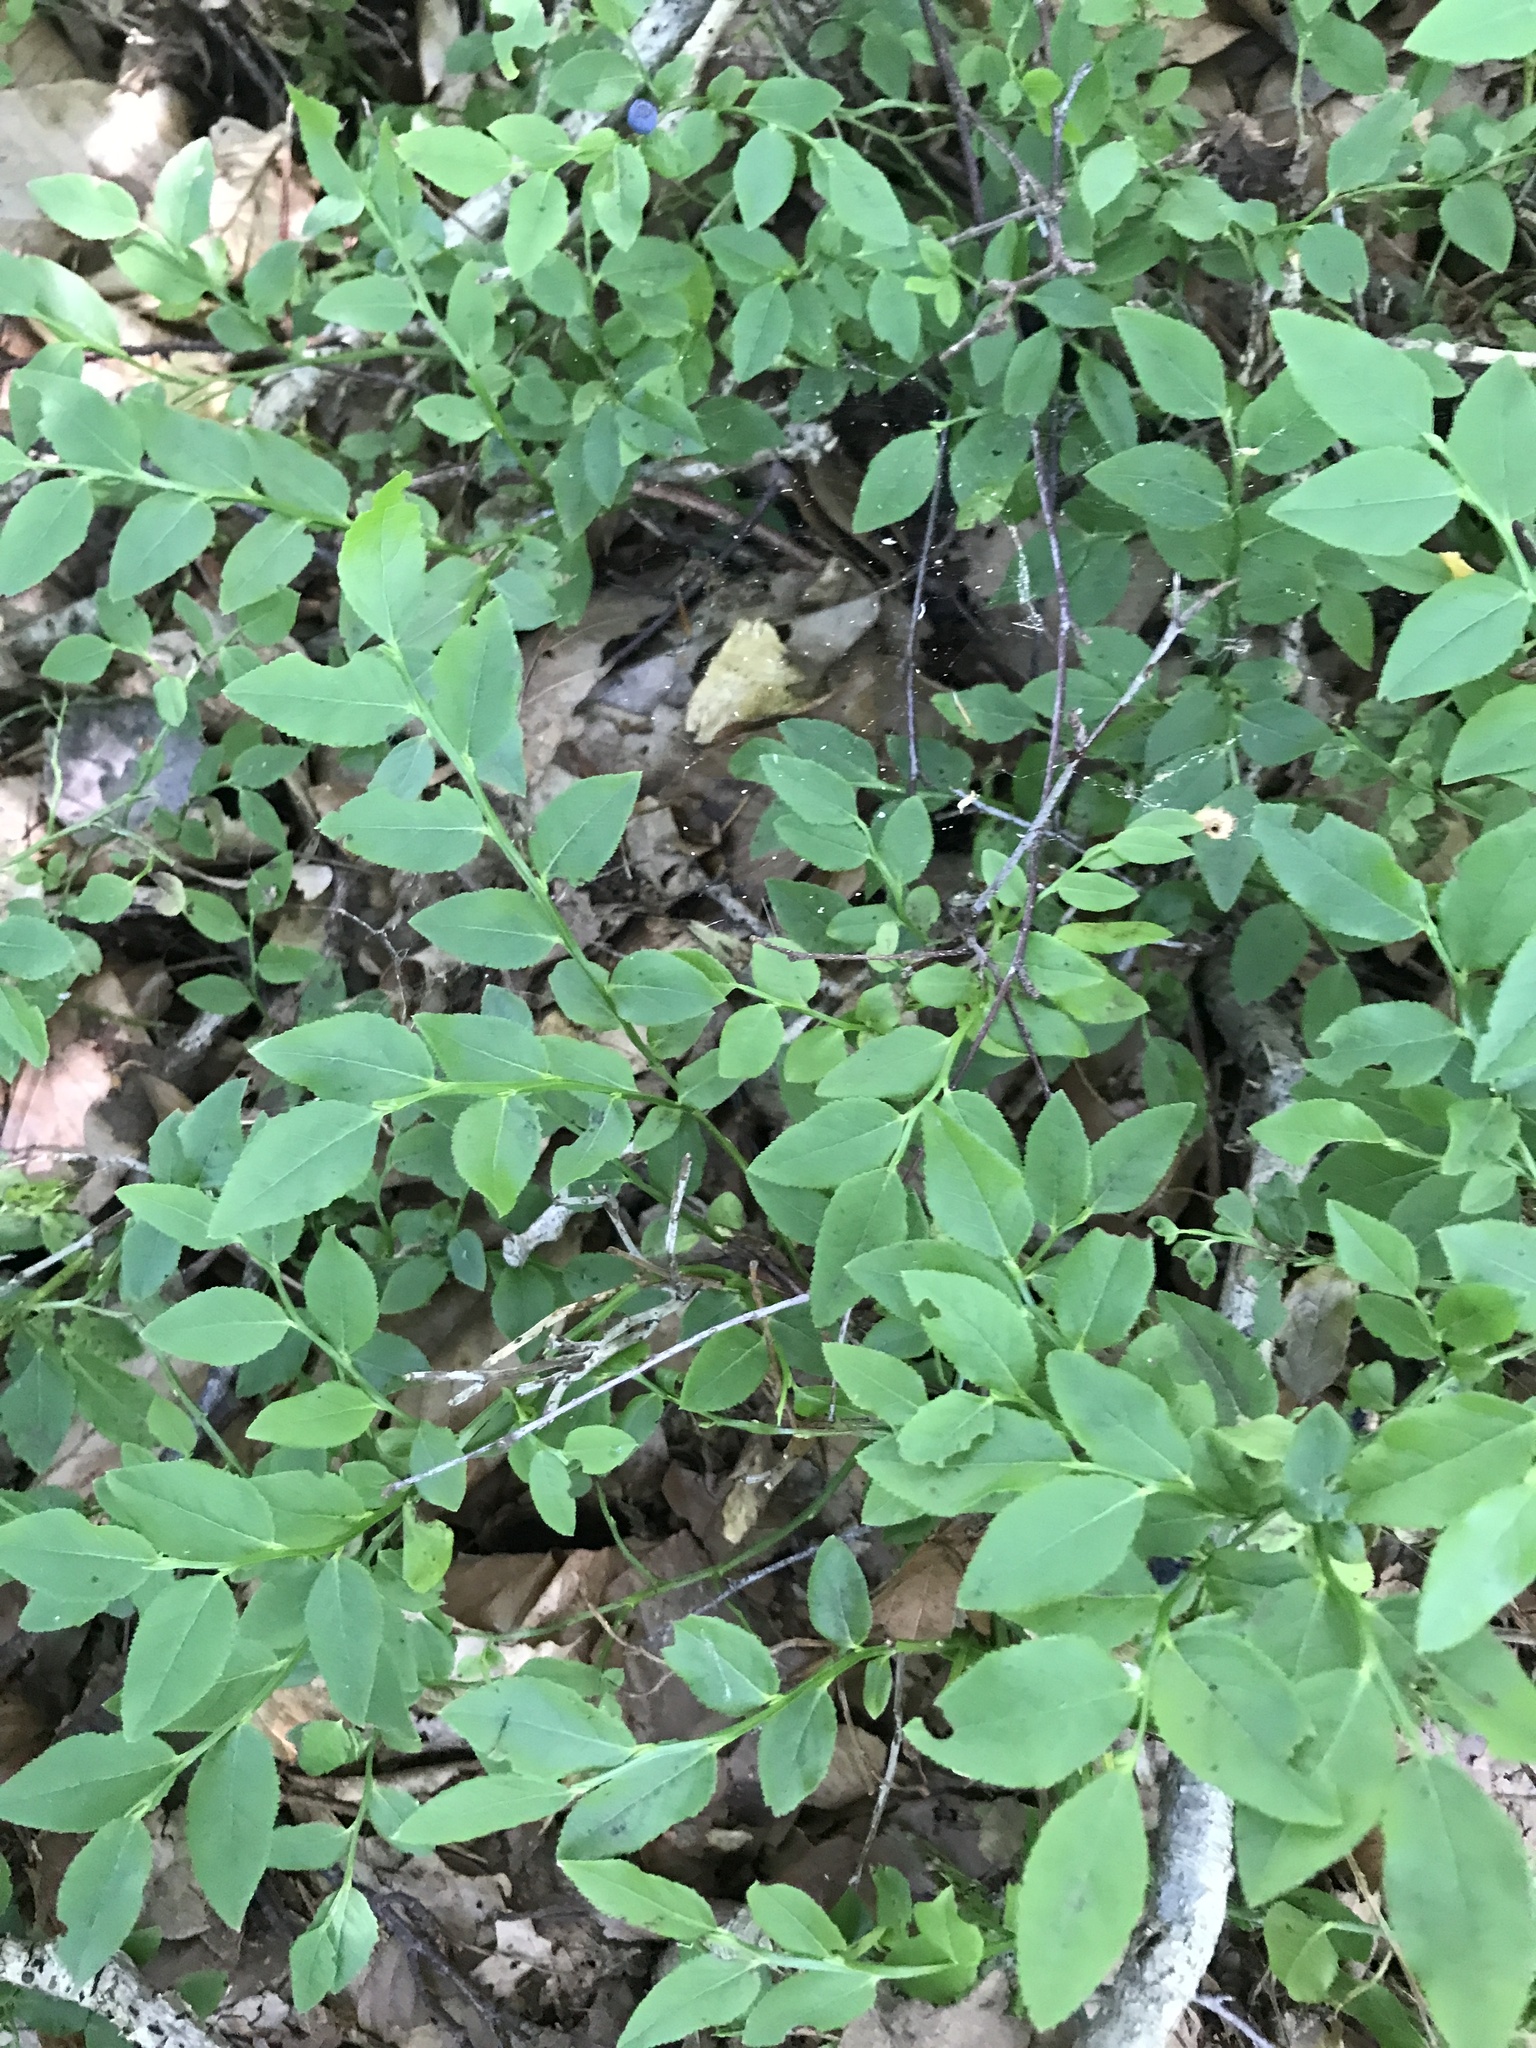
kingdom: Plantae
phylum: Tracheophyta
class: Magnoliopsida
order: Ericales
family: Ericaceae
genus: Vaccinium
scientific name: Vaccinium myrtillus
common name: Bilberry
